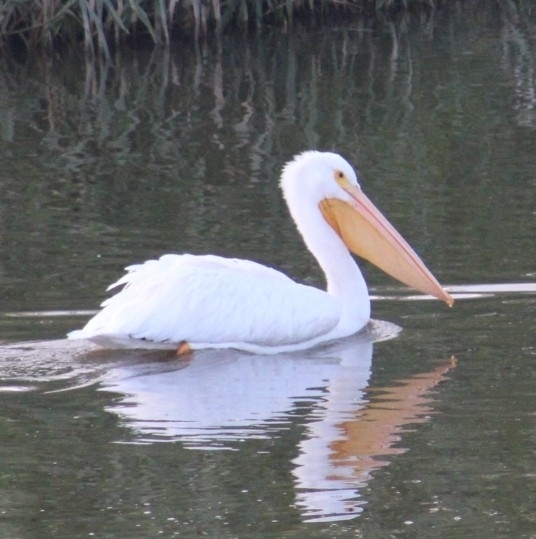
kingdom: Animalia
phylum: Chordata
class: Aves
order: Pelecaniformes
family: Pelecanidae
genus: Pelecanus
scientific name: Pelecanus erythrorhynchos
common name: American white pelican
